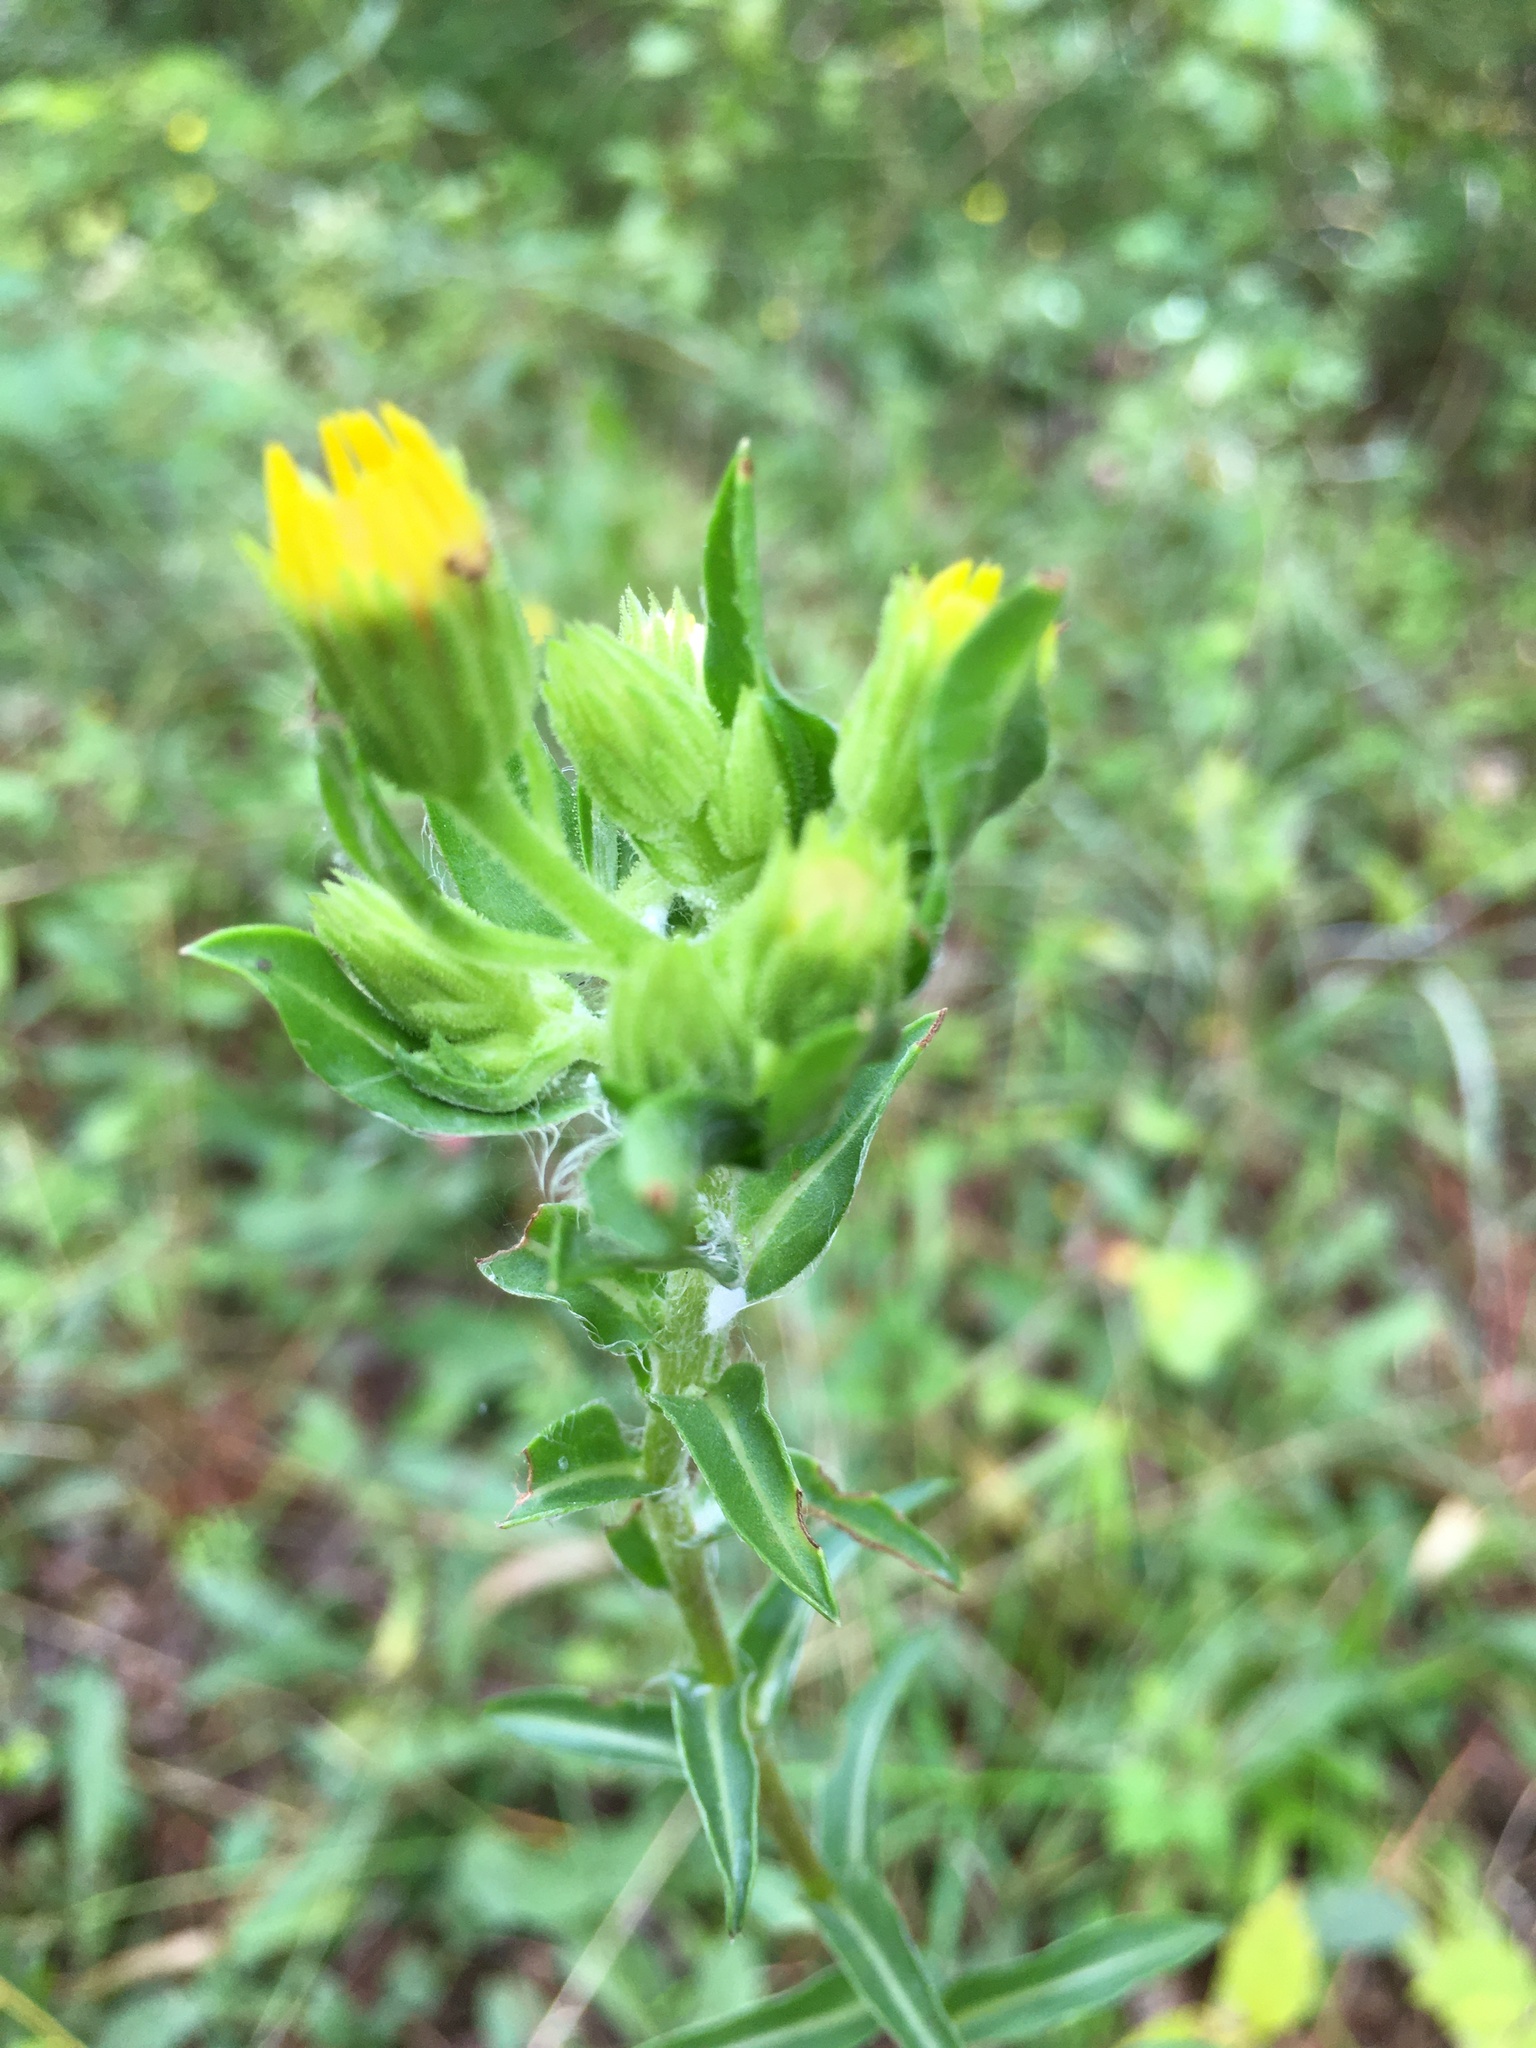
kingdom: Plantae
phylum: Tracheophyta
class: Magnoliopsida
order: Asterales
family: Asteraceae
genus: Chrysopsis
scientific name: Chrysopsis mariana
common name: Maryland golden-aster
